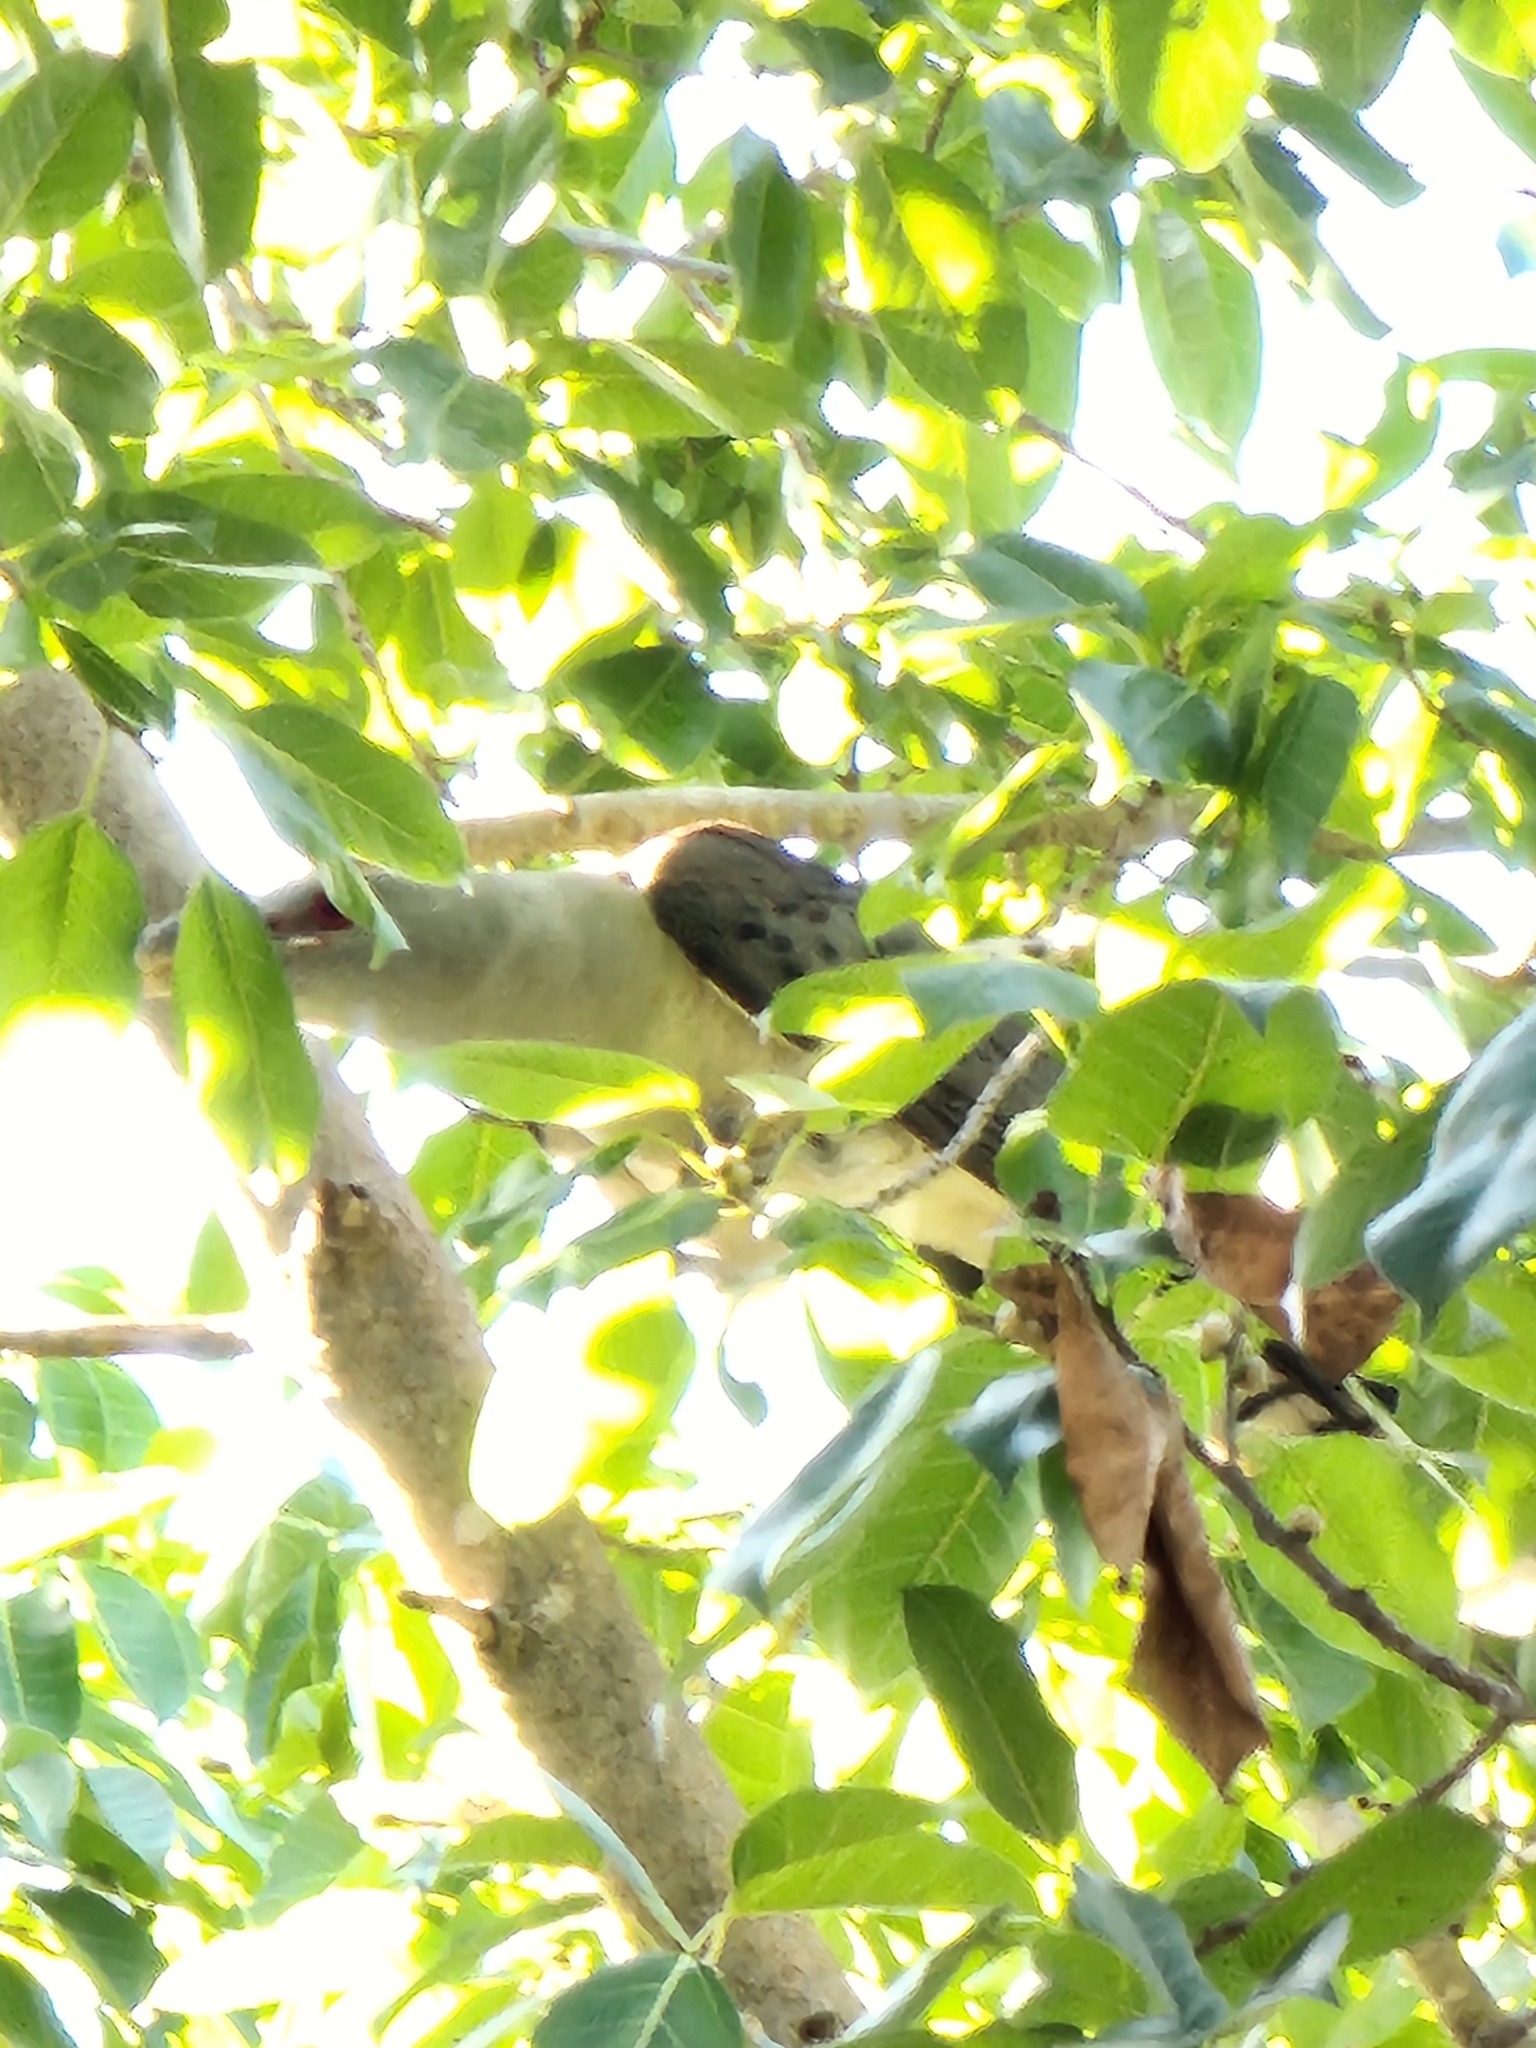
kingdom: Animalia
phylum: Chordata
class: Aves
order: Cuculiformes
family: Cuculidae
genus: Scythrops
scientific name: Scythrops novaehollandiae
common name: Channel-billed cuckoo
